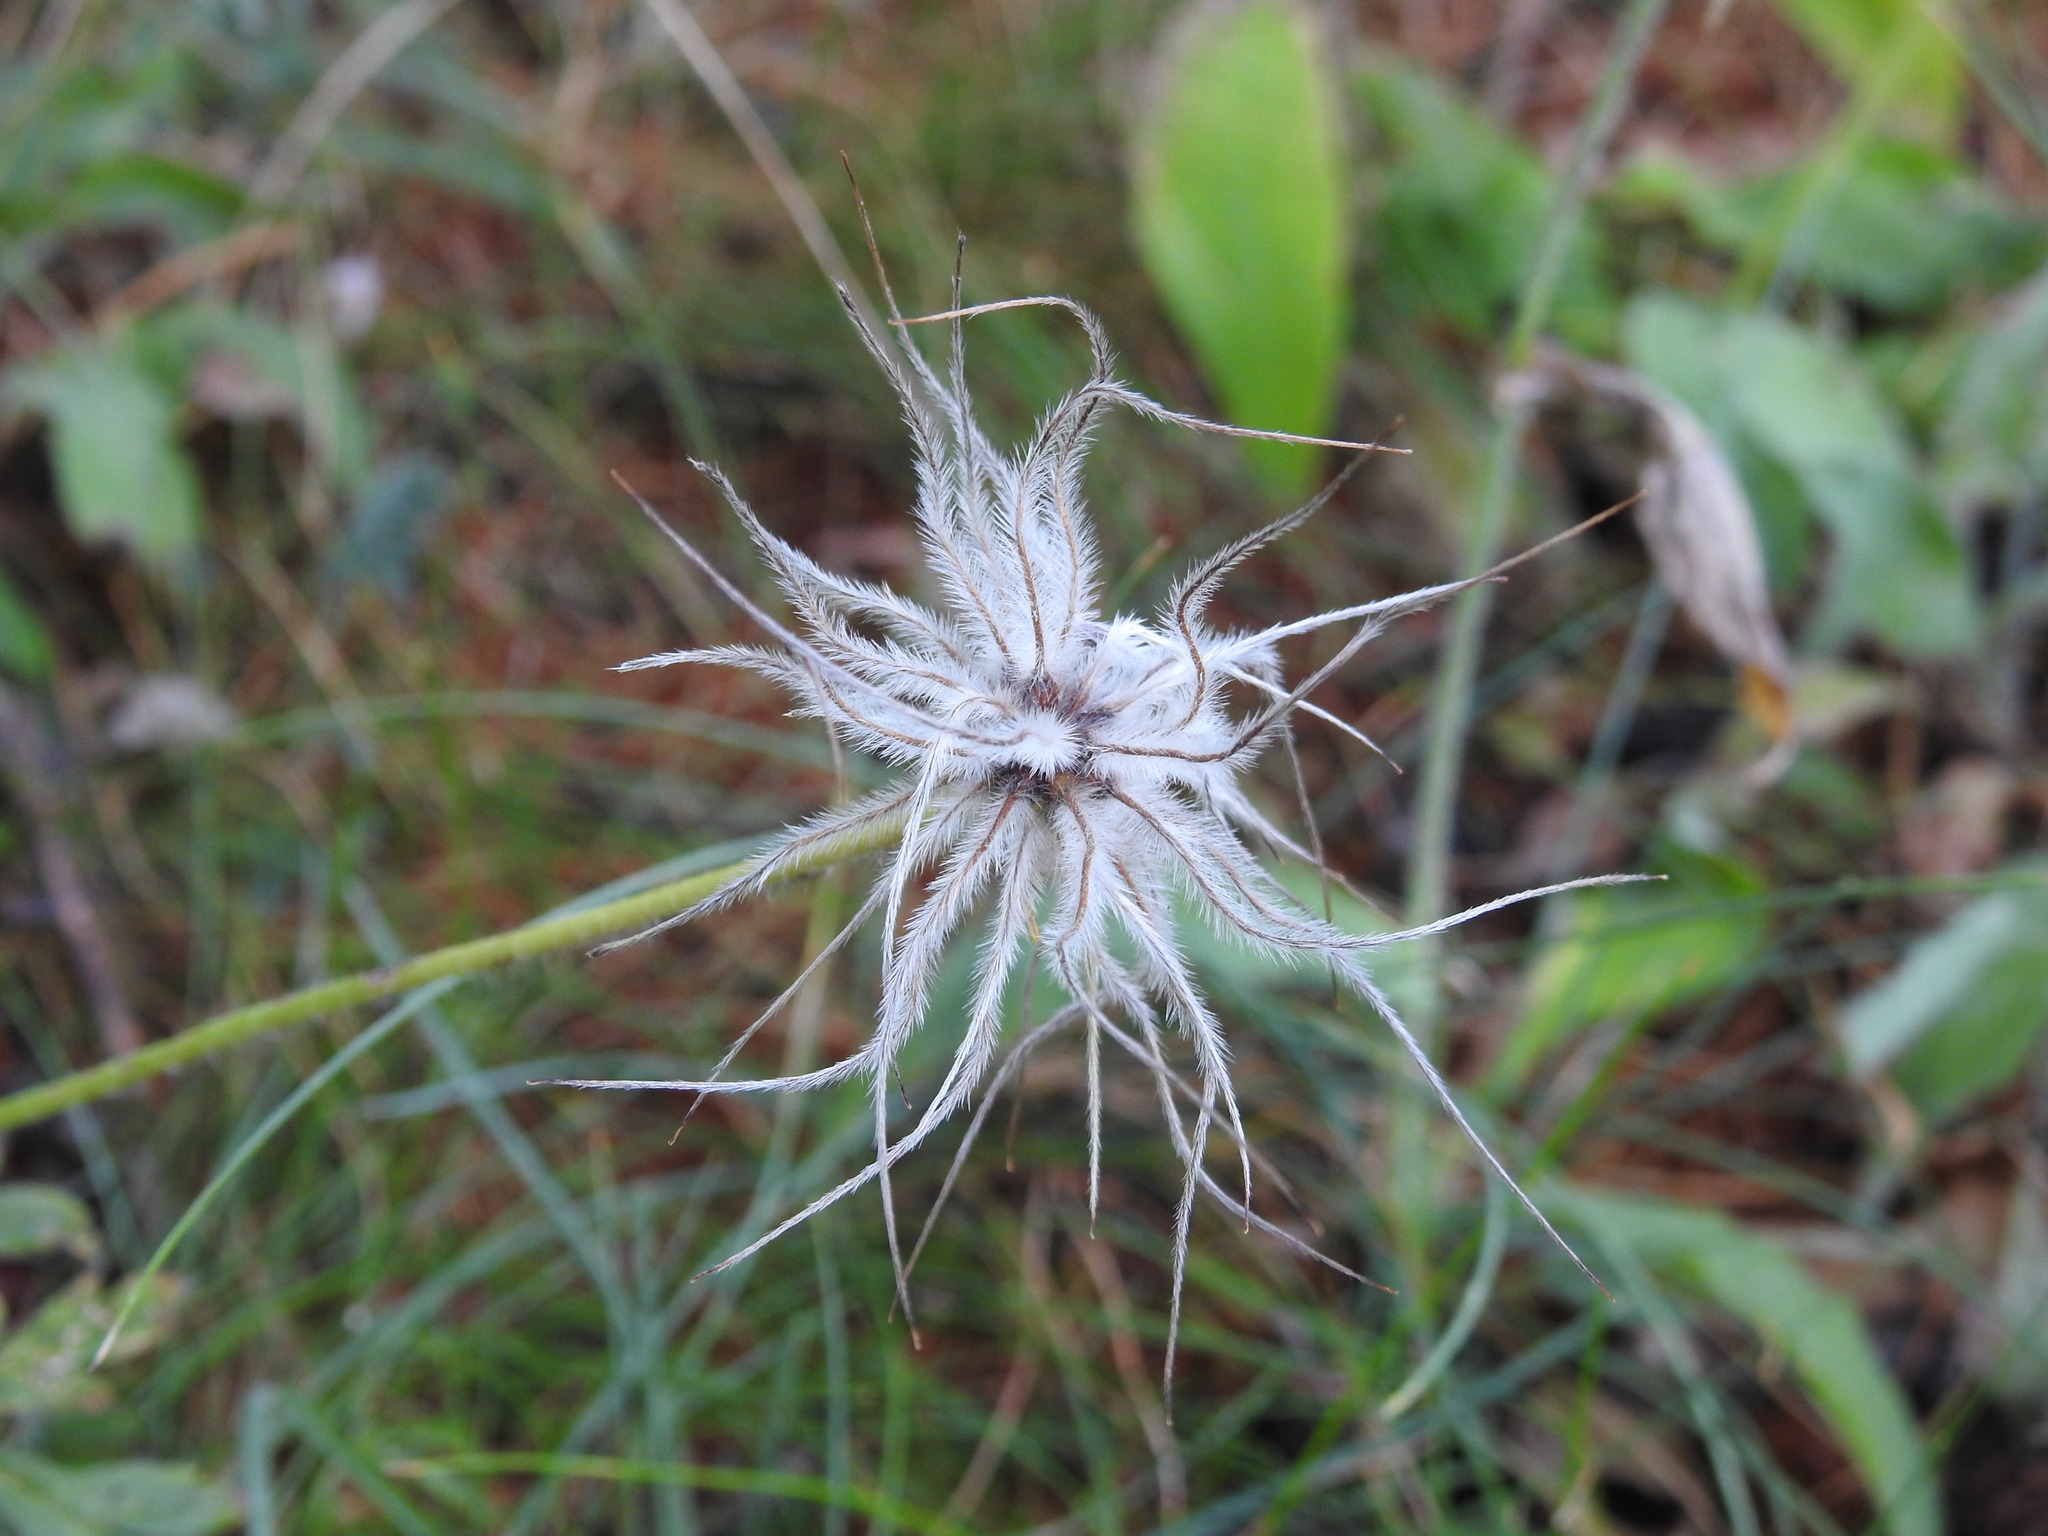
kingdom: Plantae
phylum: Tracheophyta
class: Magnoliopsida
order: Ranunculales
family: Ranunculaceae
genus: Pulsatilla
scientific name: Pulsatilla alpina
